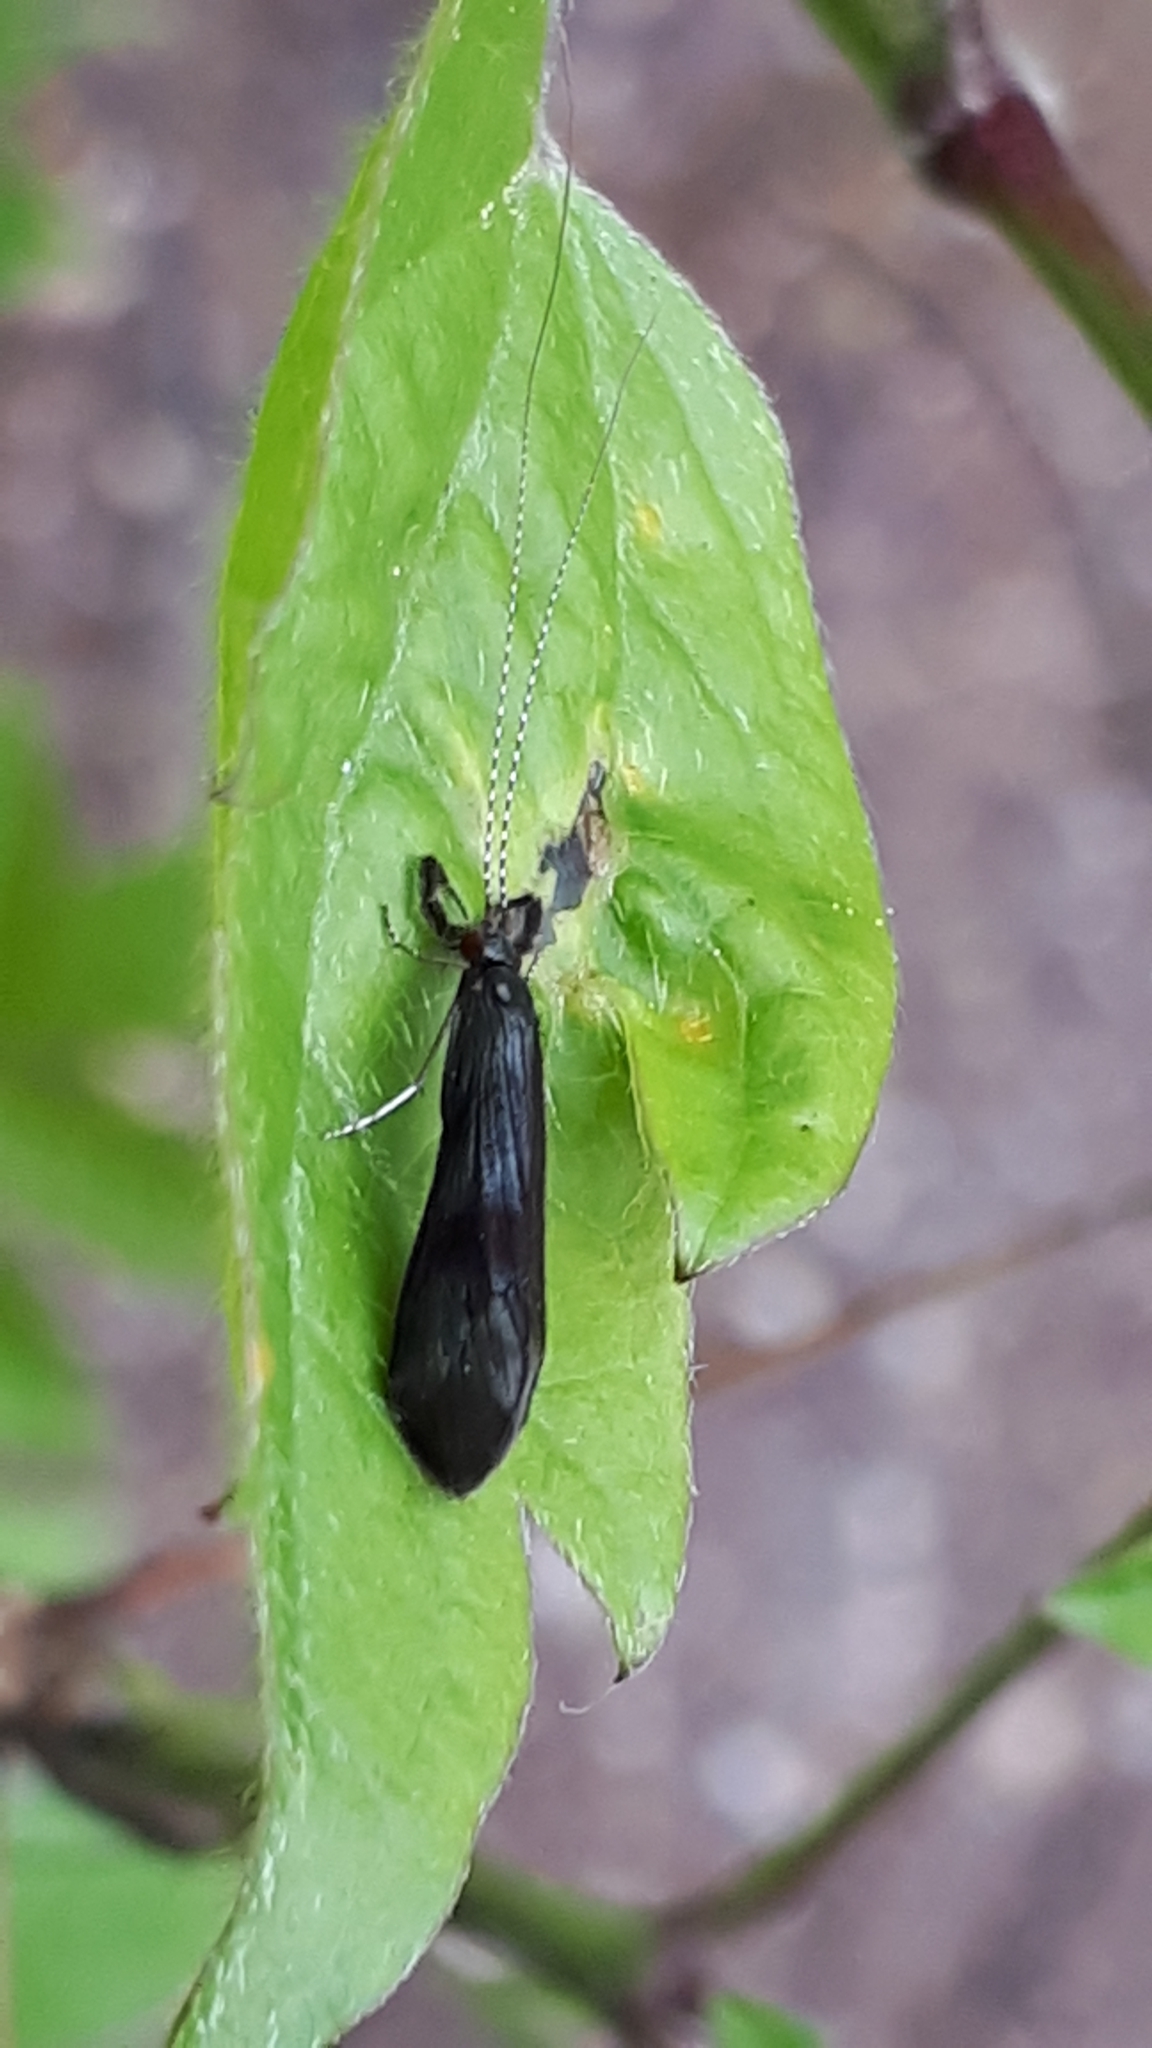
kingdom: Animalia
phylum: Arthropoda
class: Insecta
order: Trichoptera
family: Leptoceridae
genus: Mystacides
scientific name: Mystacides niger
